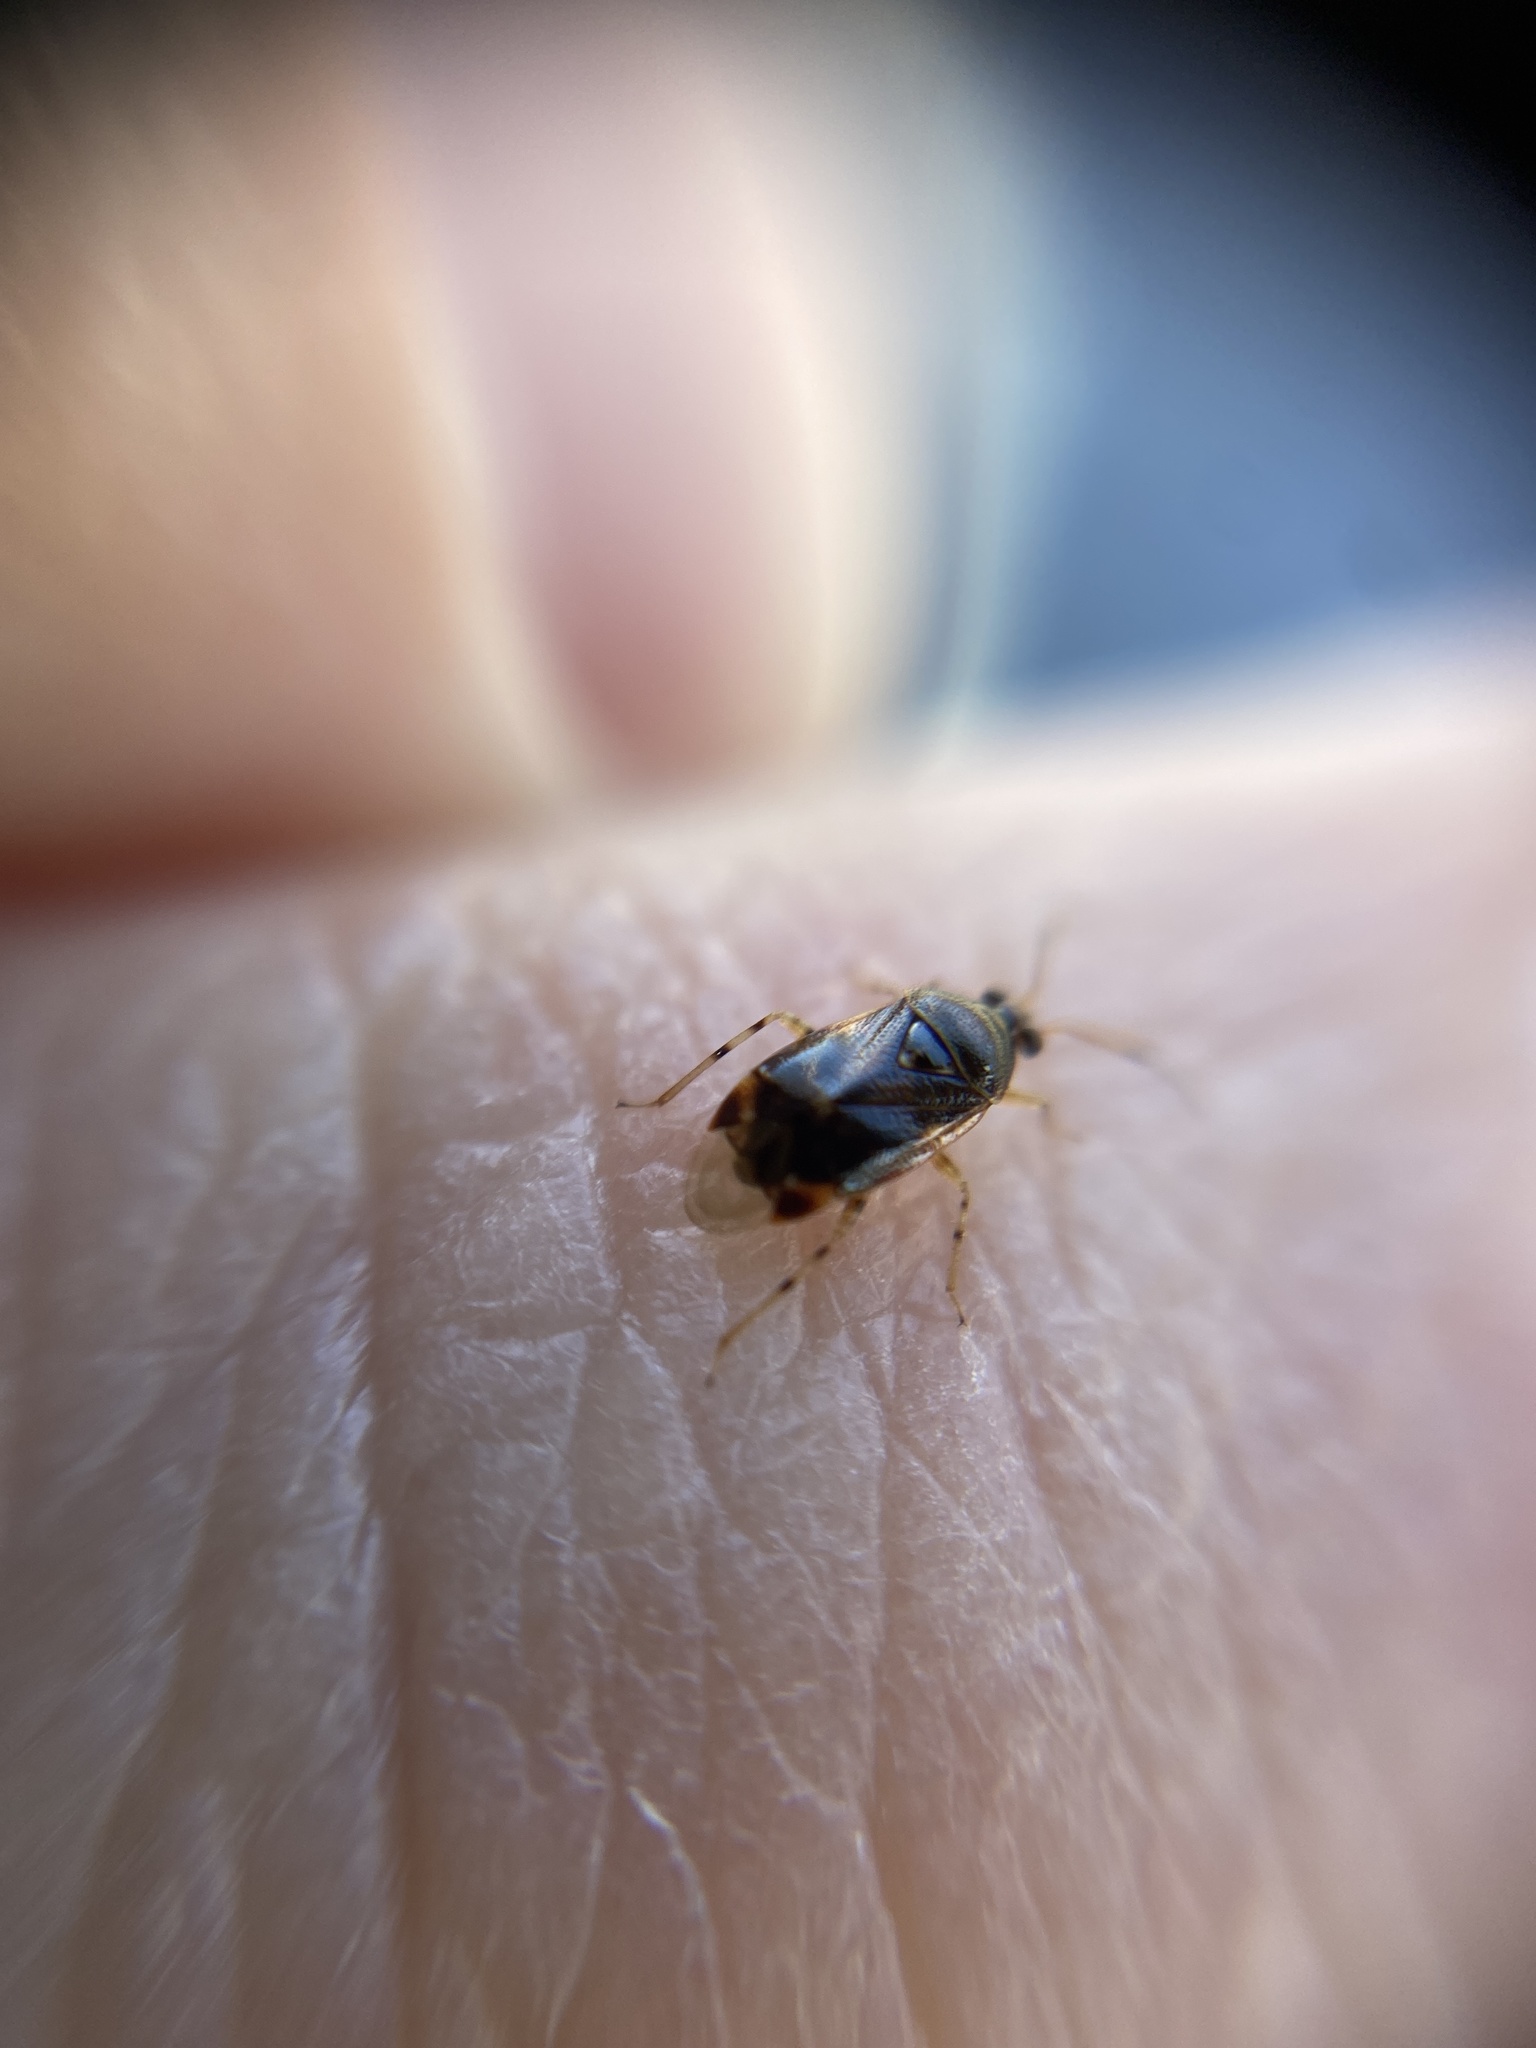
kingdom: Animalia
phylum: Arthropoda
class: Insecta
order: Hemiptera
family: Miridae
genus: Deraeocoris
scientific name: Deraeocoris lutescens
